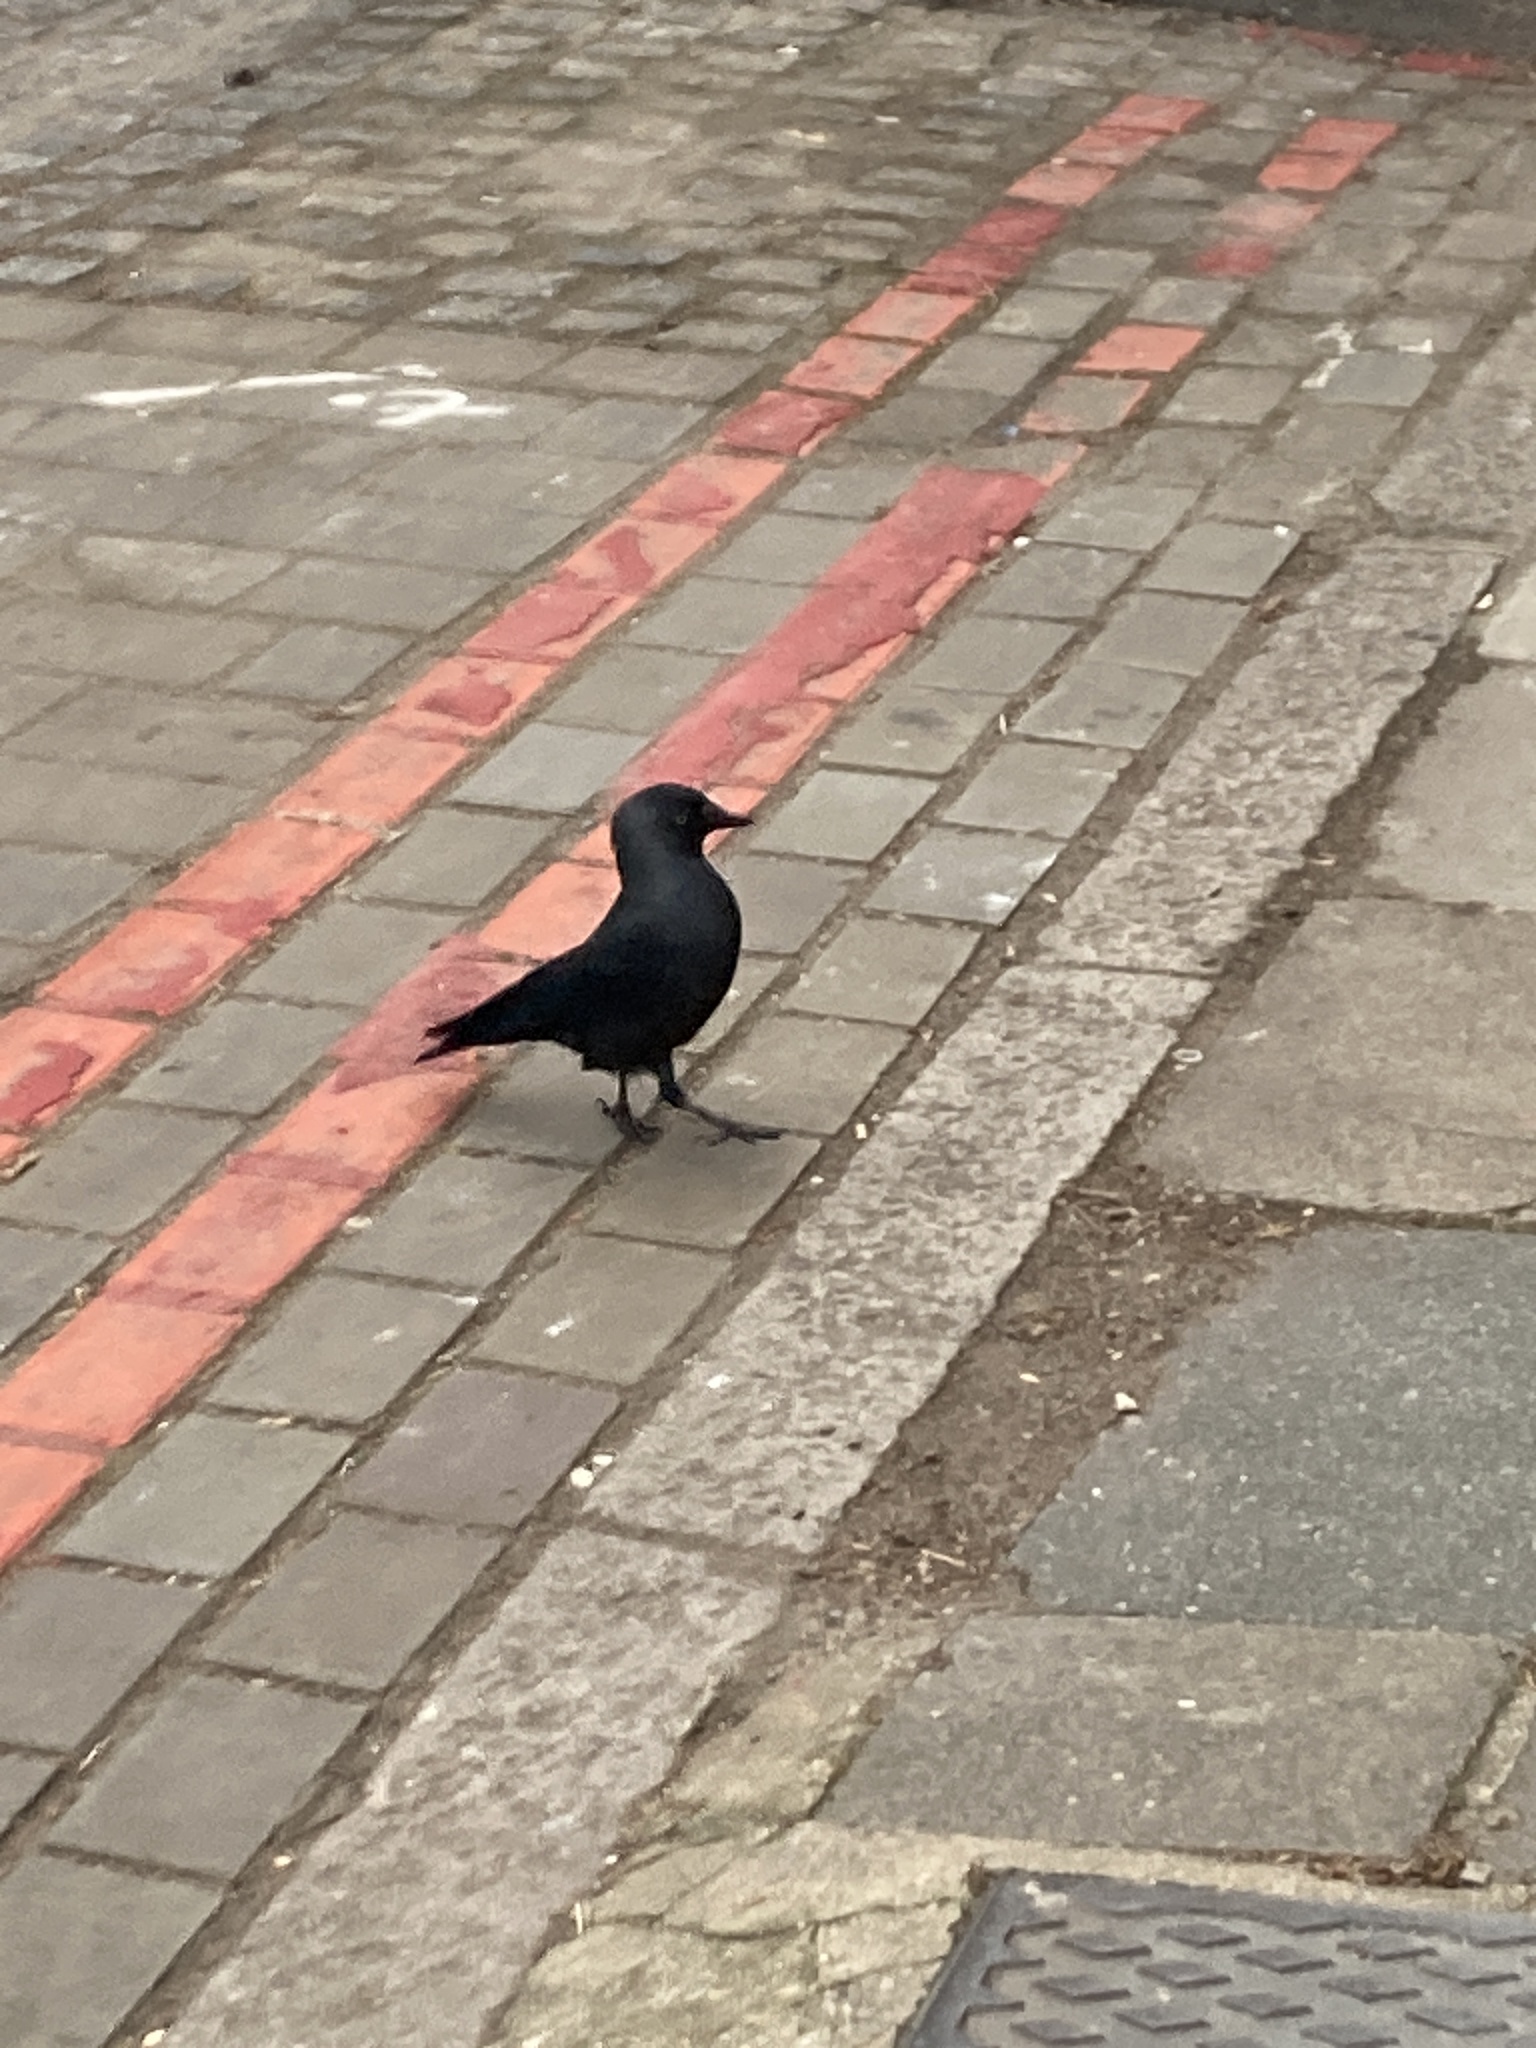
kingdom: Animalia
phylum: Chordata
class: Aves
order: Passeriformes
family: Corvidae
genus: Coloeus
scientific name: Coloeus monedula
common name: Western jackdaw
